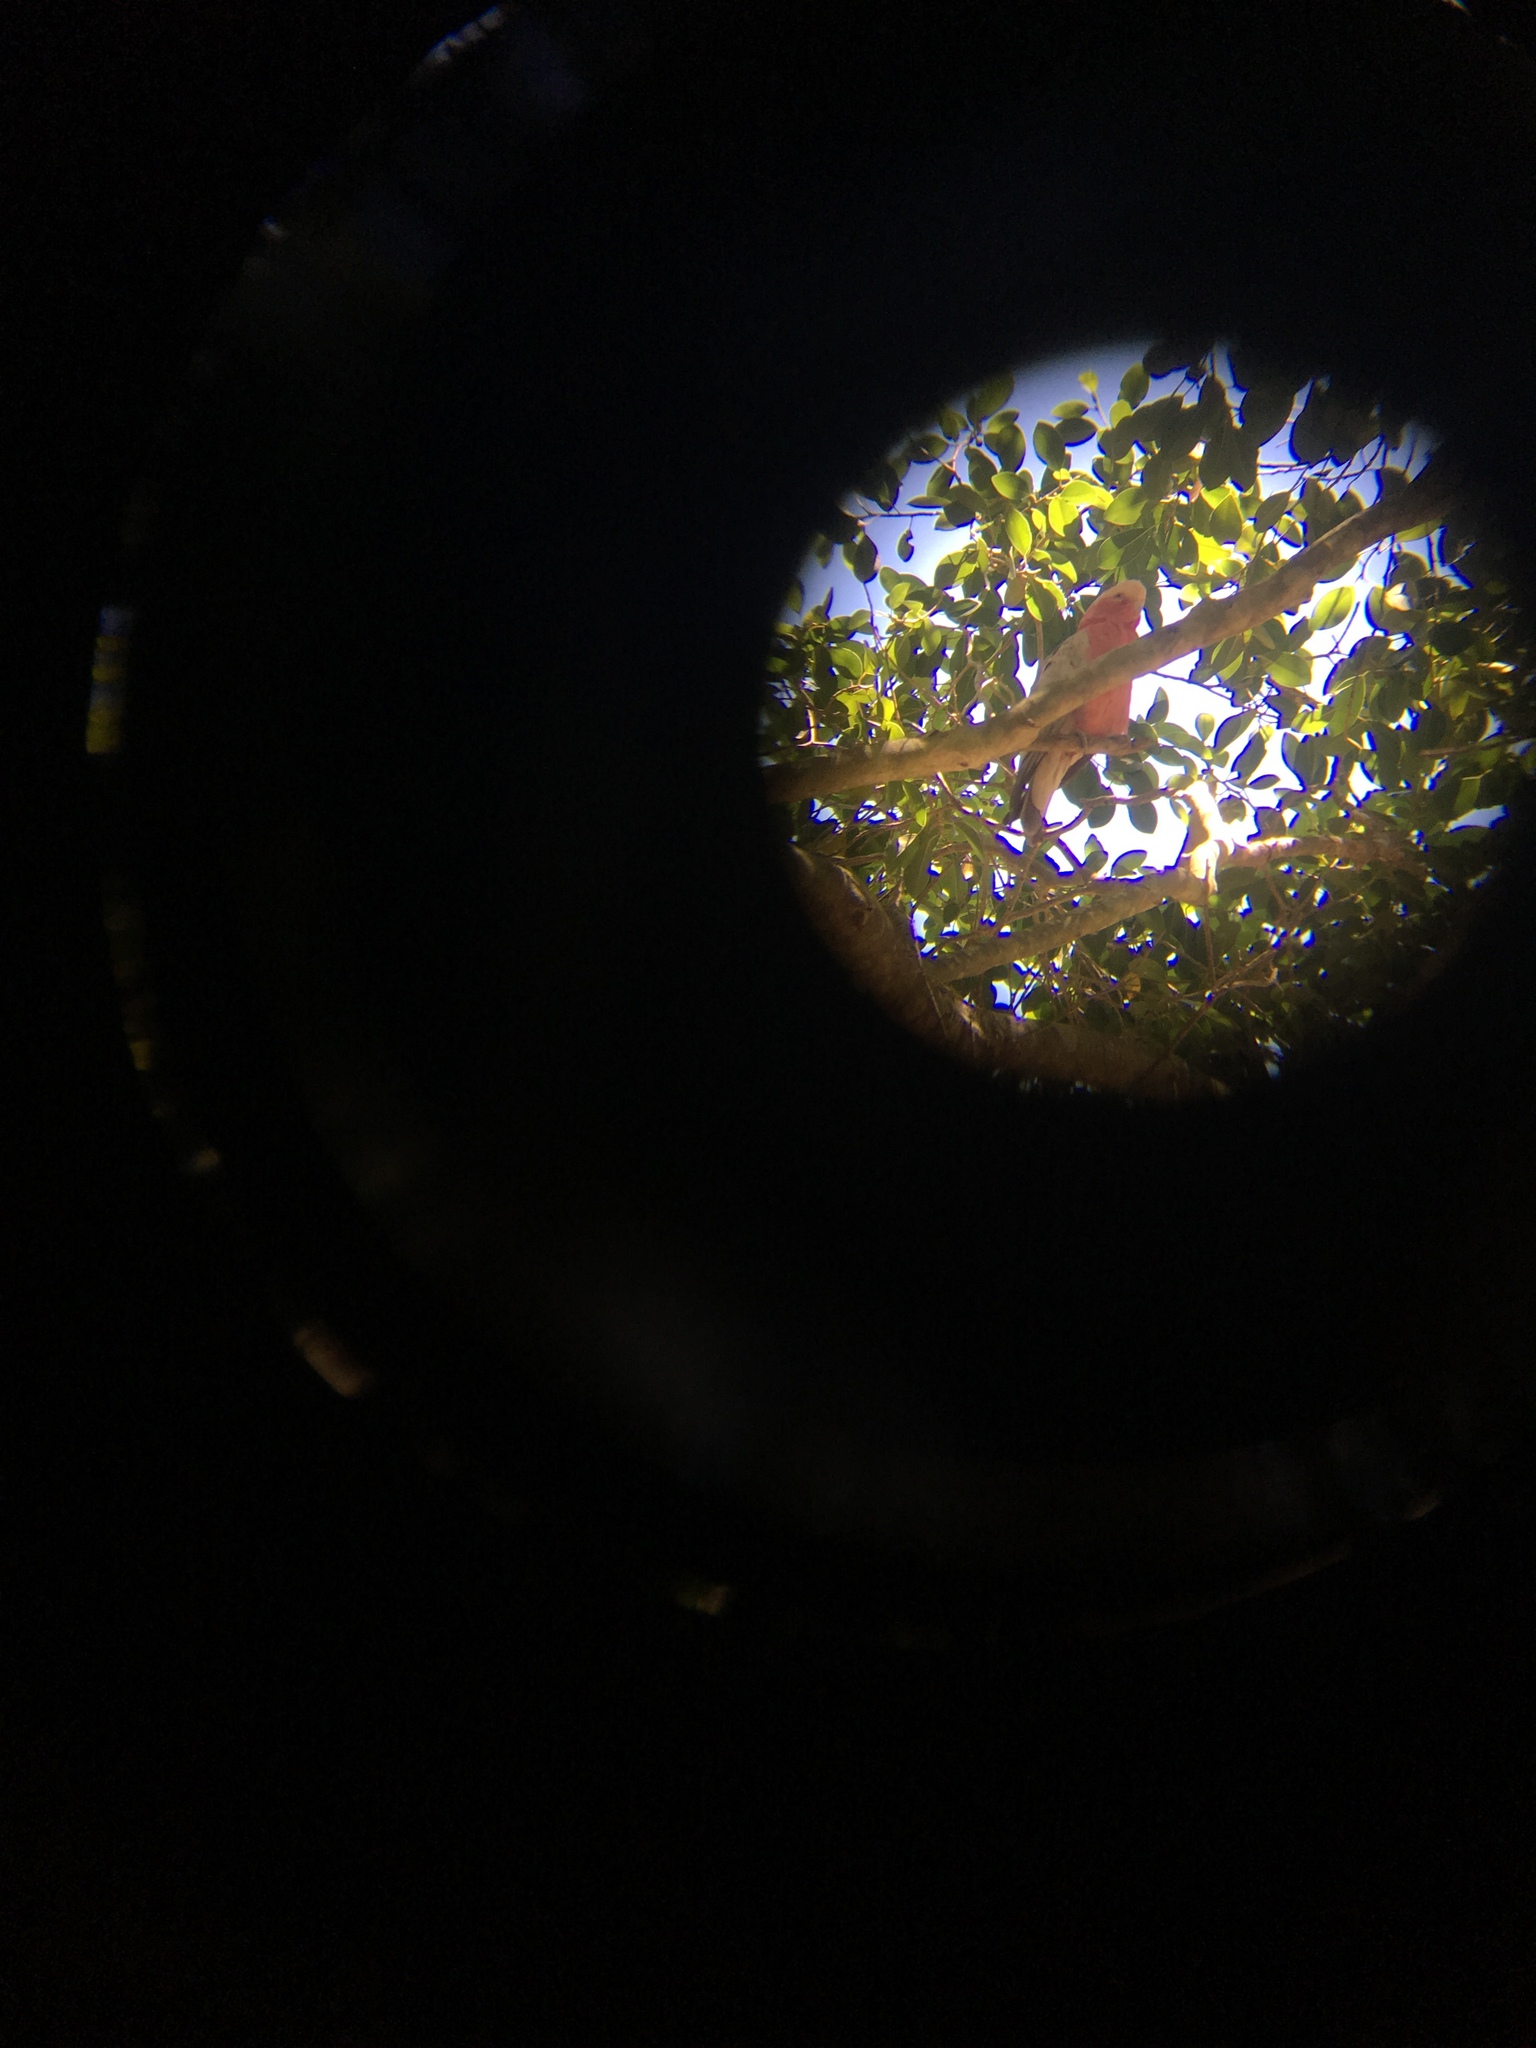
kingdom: Animalia
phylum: Chordata
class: Aves
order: Psittaciformes
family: Psittacidae
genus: Eolophus
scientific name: Eolophus roseicapilla
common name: Galah
